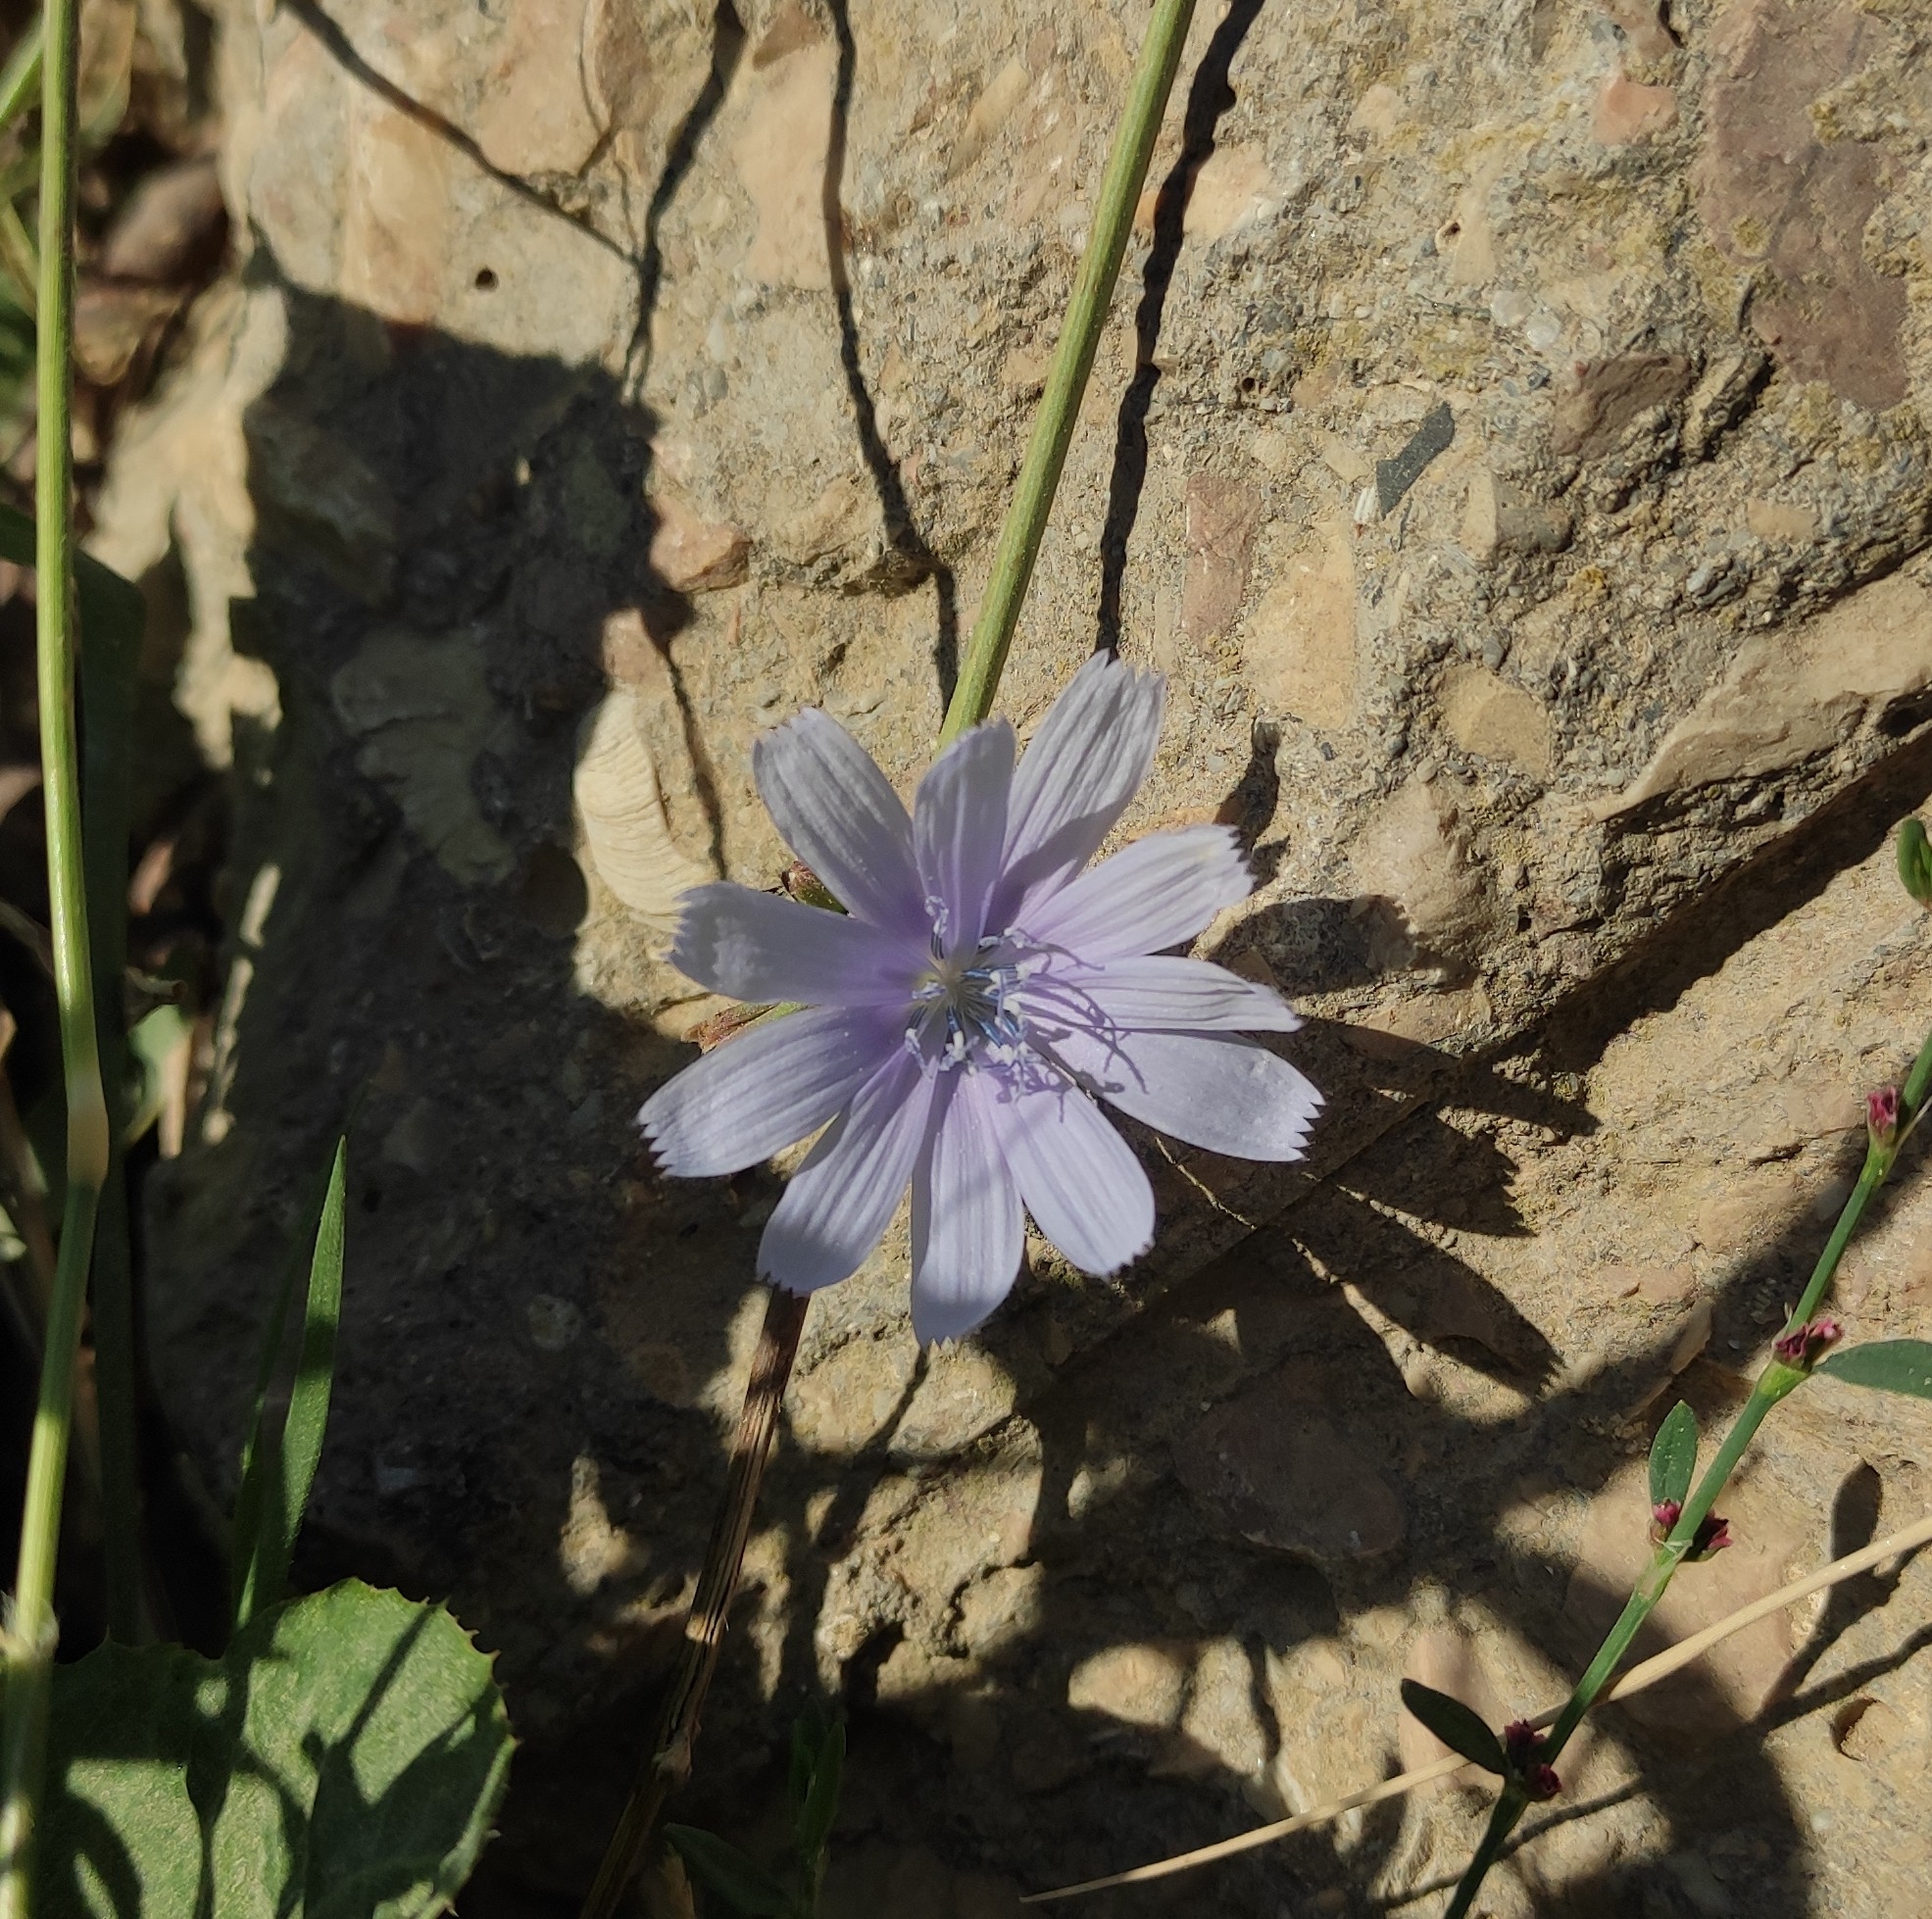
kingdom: Plantae
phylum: Tracheophyta
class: Magnoliopsida
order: Asterales
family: Asteraceae
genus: Cichorium
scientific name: Cichorium intybus
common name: Chicory
